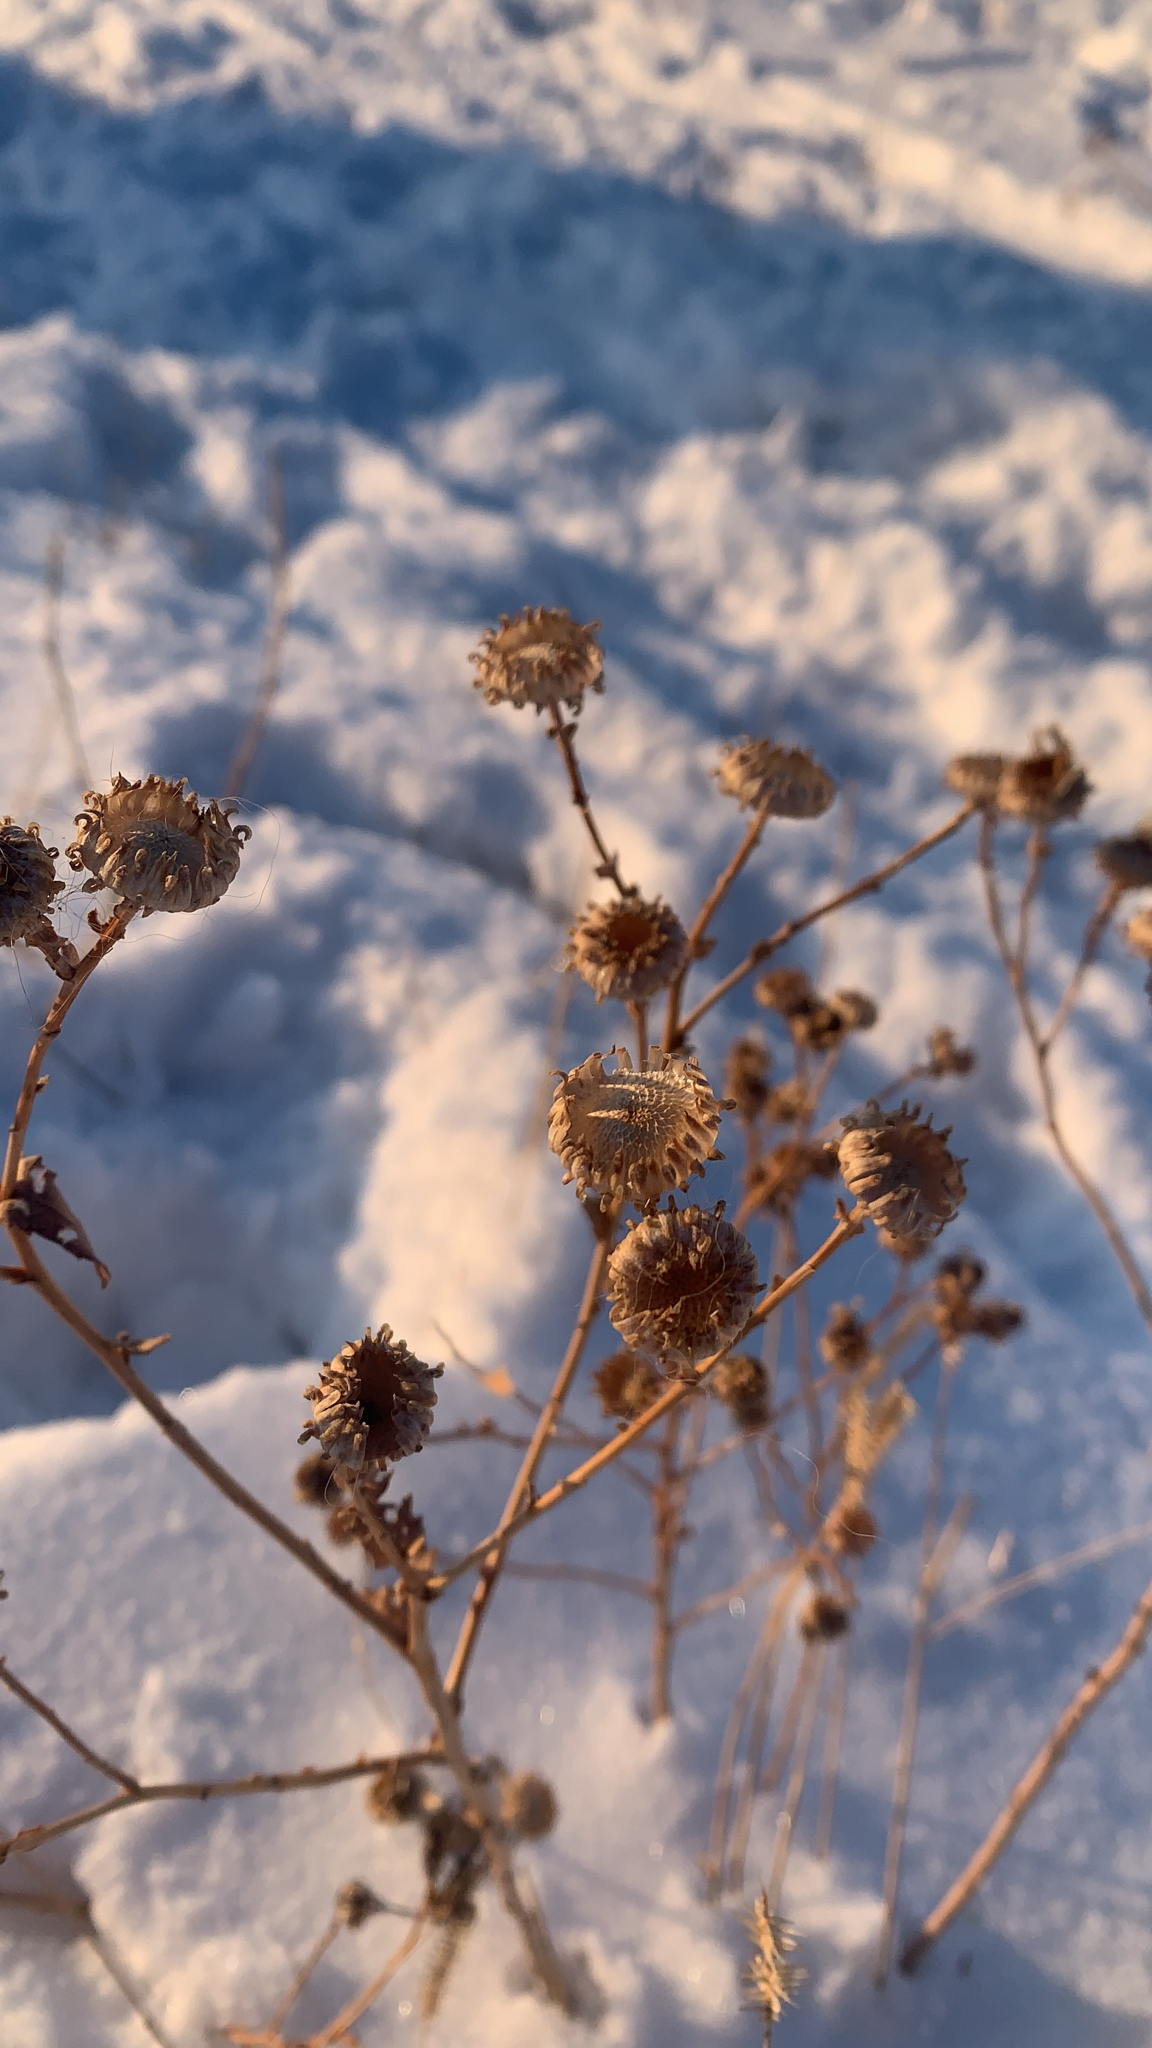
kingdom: Plantae
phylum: Tracheophyta
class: Magnoliopsida
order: Asterales
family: Asteraceae
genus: Grindelia
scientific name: Grindelia squarrosa
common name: Curly-cup gumweed
